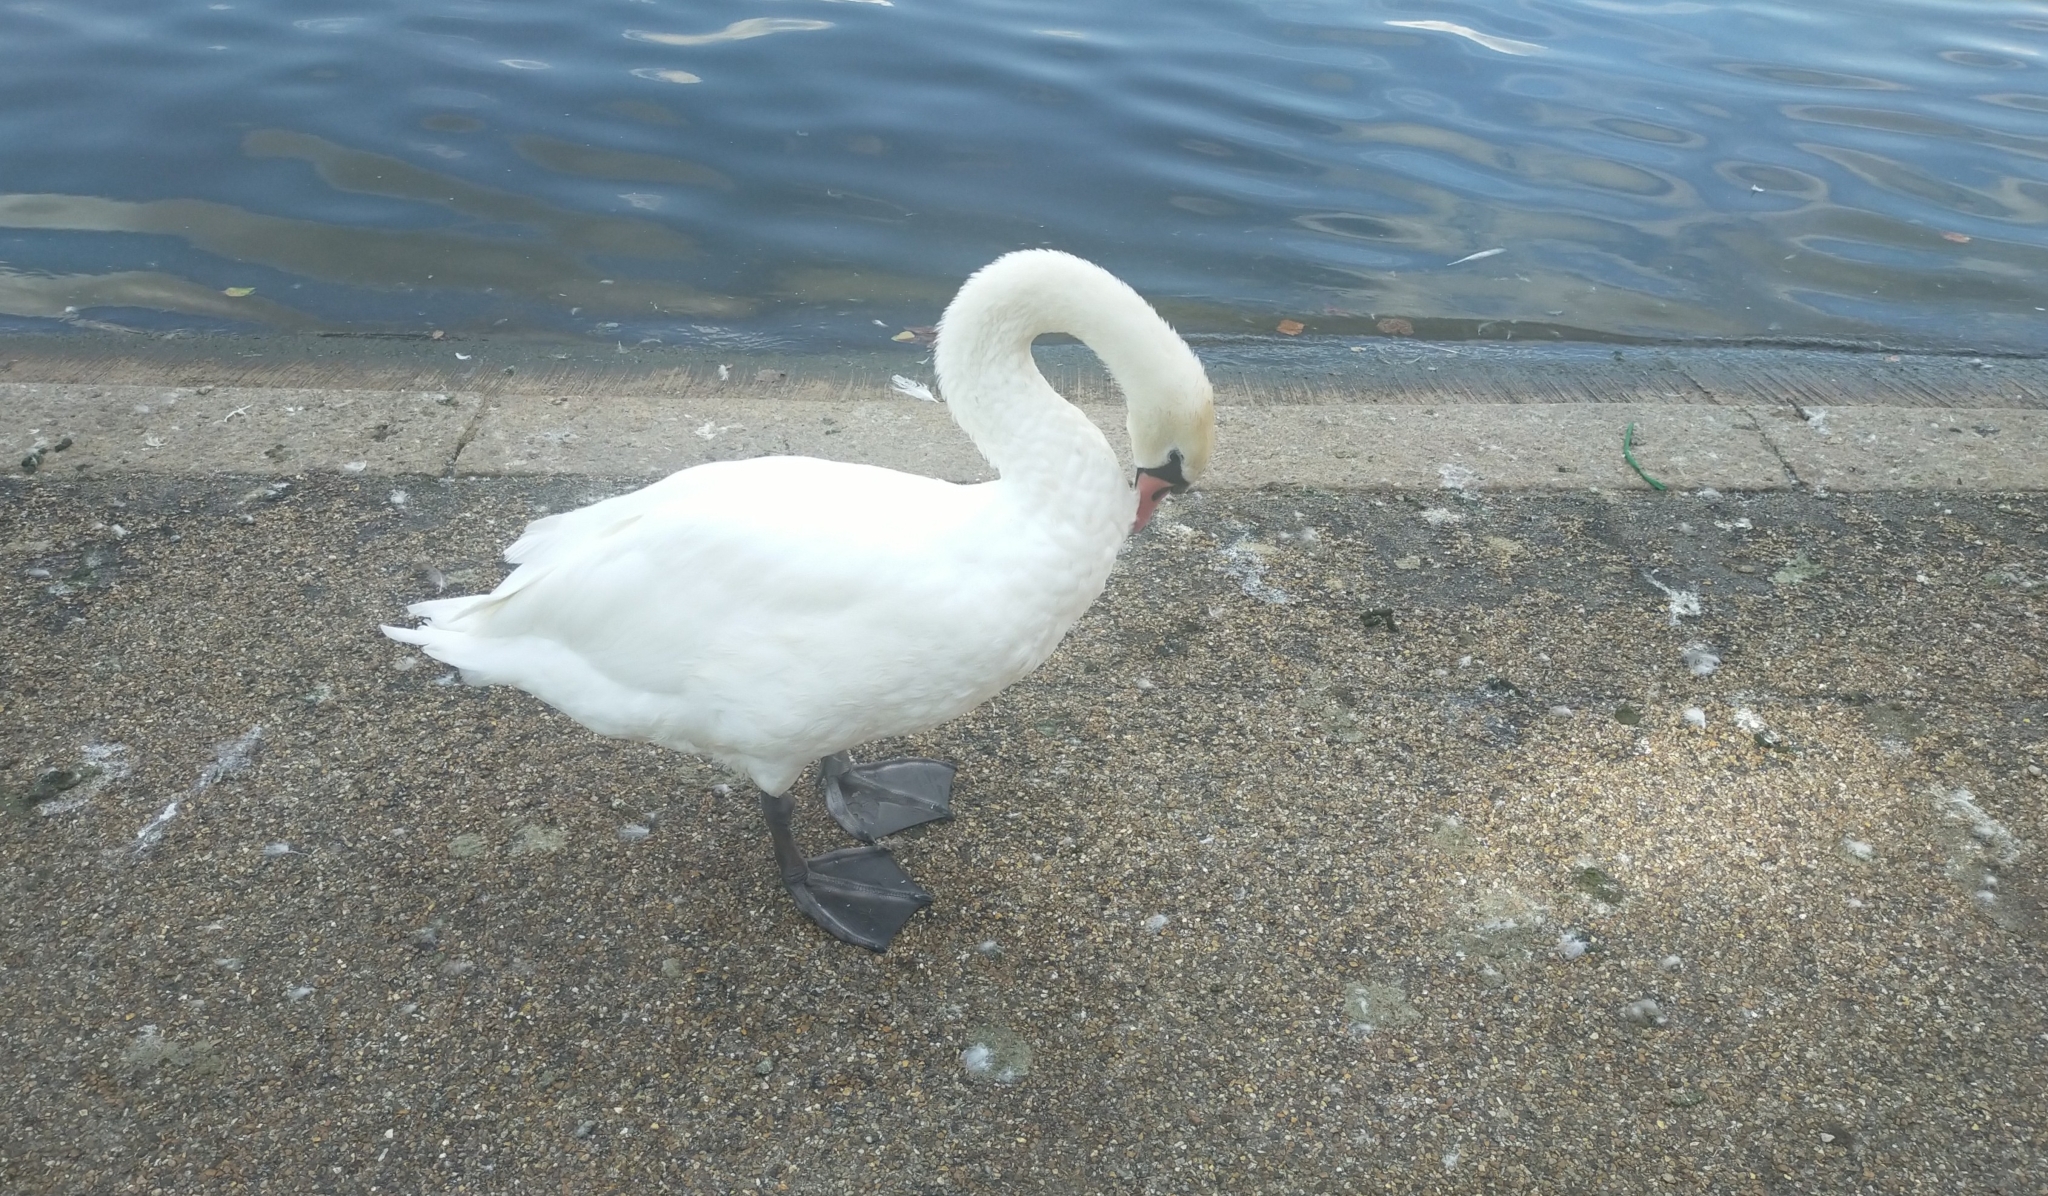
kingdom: Animalia
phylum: Chordata
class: Aves
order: Anseriformes
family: Anatidae
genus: Cygnus
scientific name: Cygnus olor
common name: Mute swan
